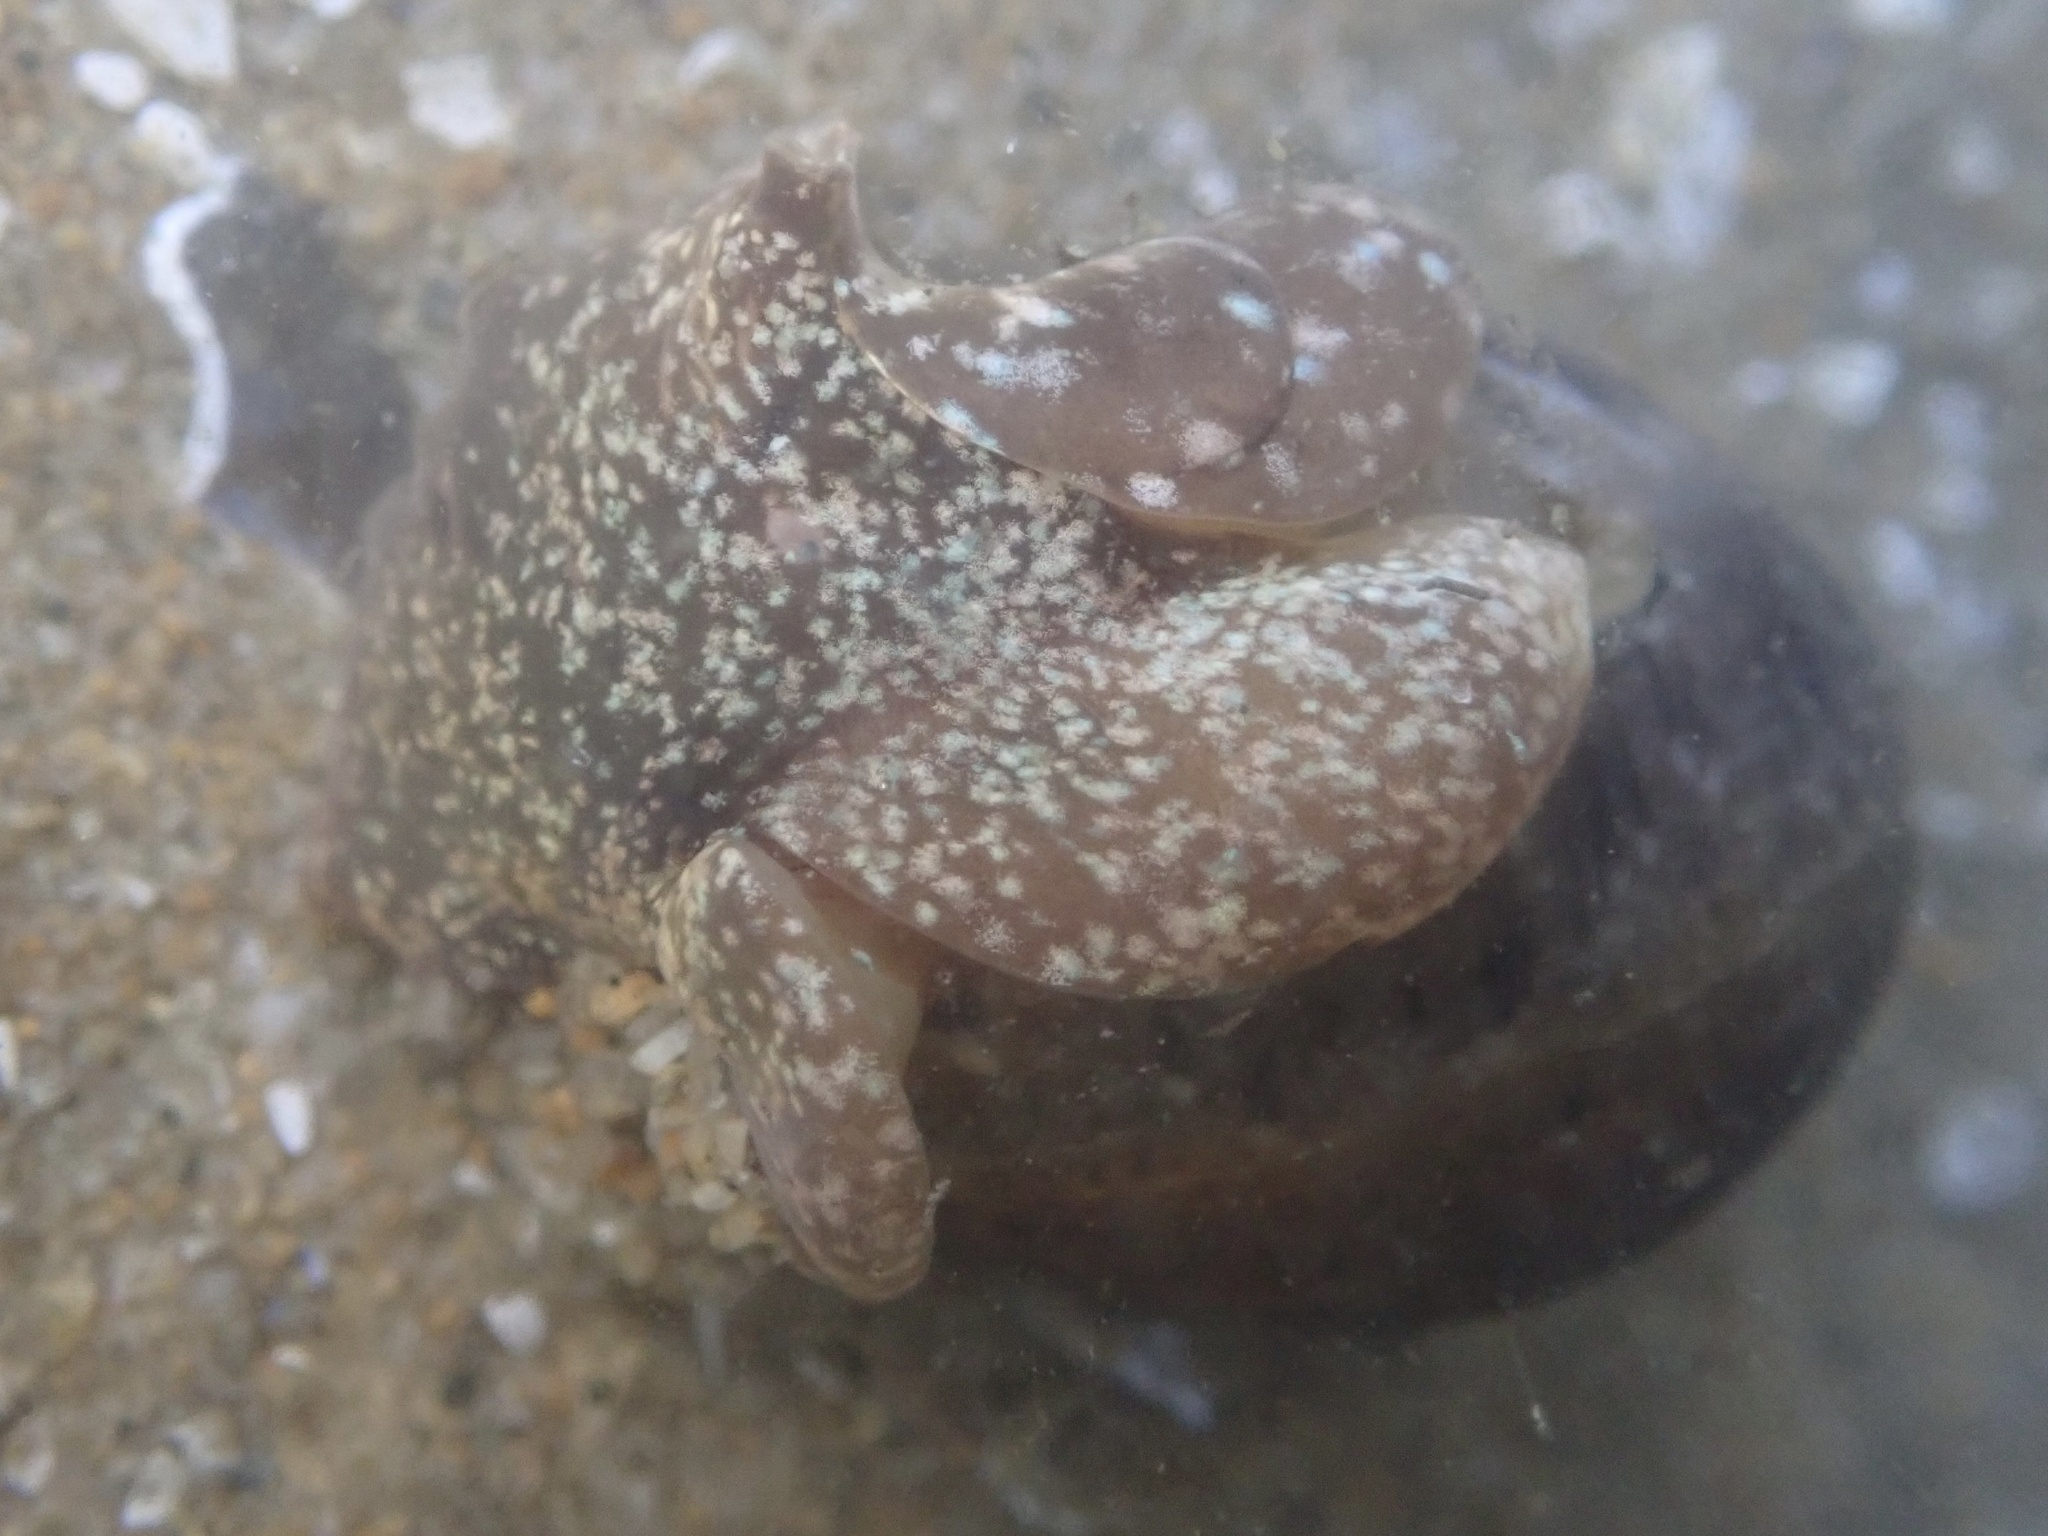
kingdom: Animalia
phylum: Mollusca
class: Gastropoda
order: Cephalaspidea
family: Bullidae
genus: Bulla
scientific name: Bulla gouldiana
